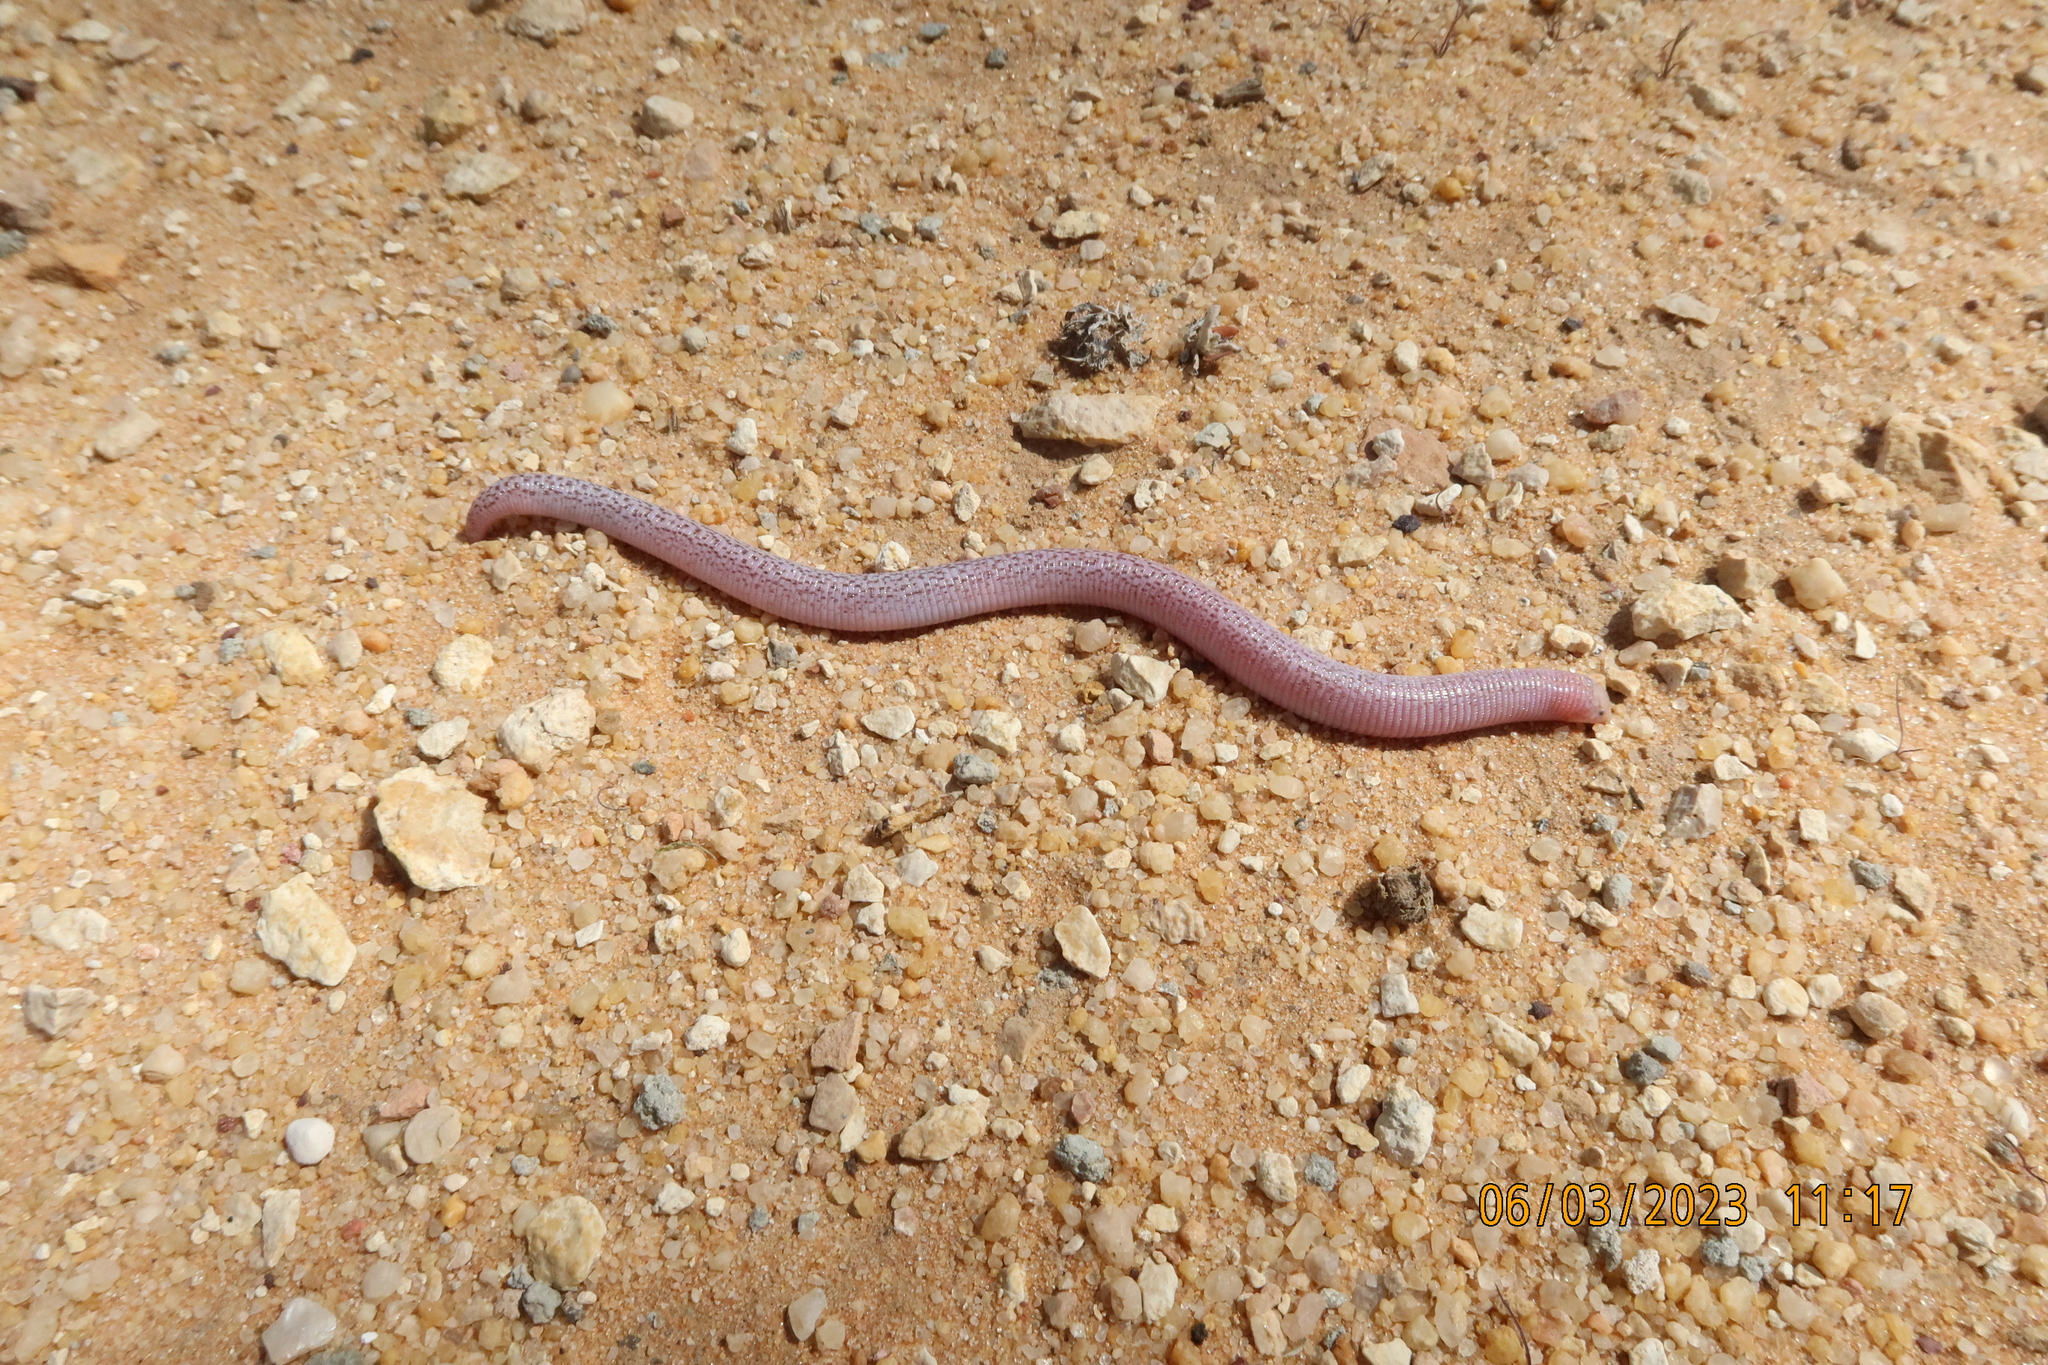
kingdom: Animalia
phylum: Chordata
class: Squamata
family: Trogonophidae
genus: Diplometopon
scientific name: Diplometopon zarudnyi
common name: Zarudnyi's worm lizard
